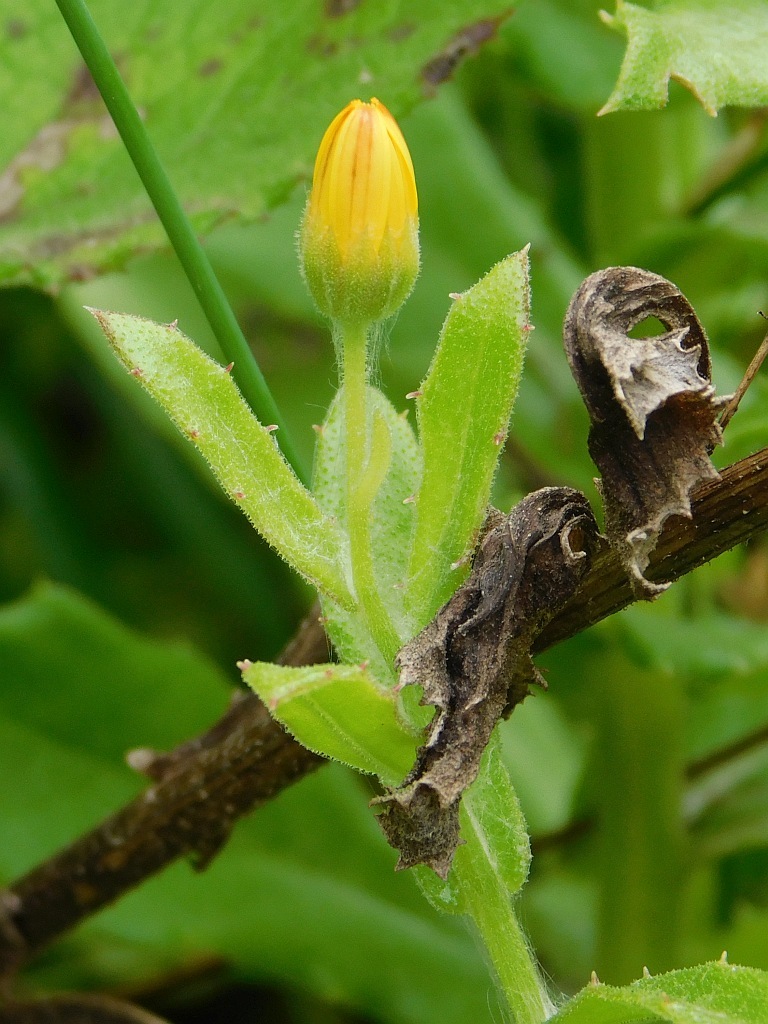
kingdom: Plantae
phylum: Tracheophyta
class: Magnoliopsida
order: Asterales
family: Asteraceae
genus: Osteospermum
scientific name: Osteospermum ilicifolium
